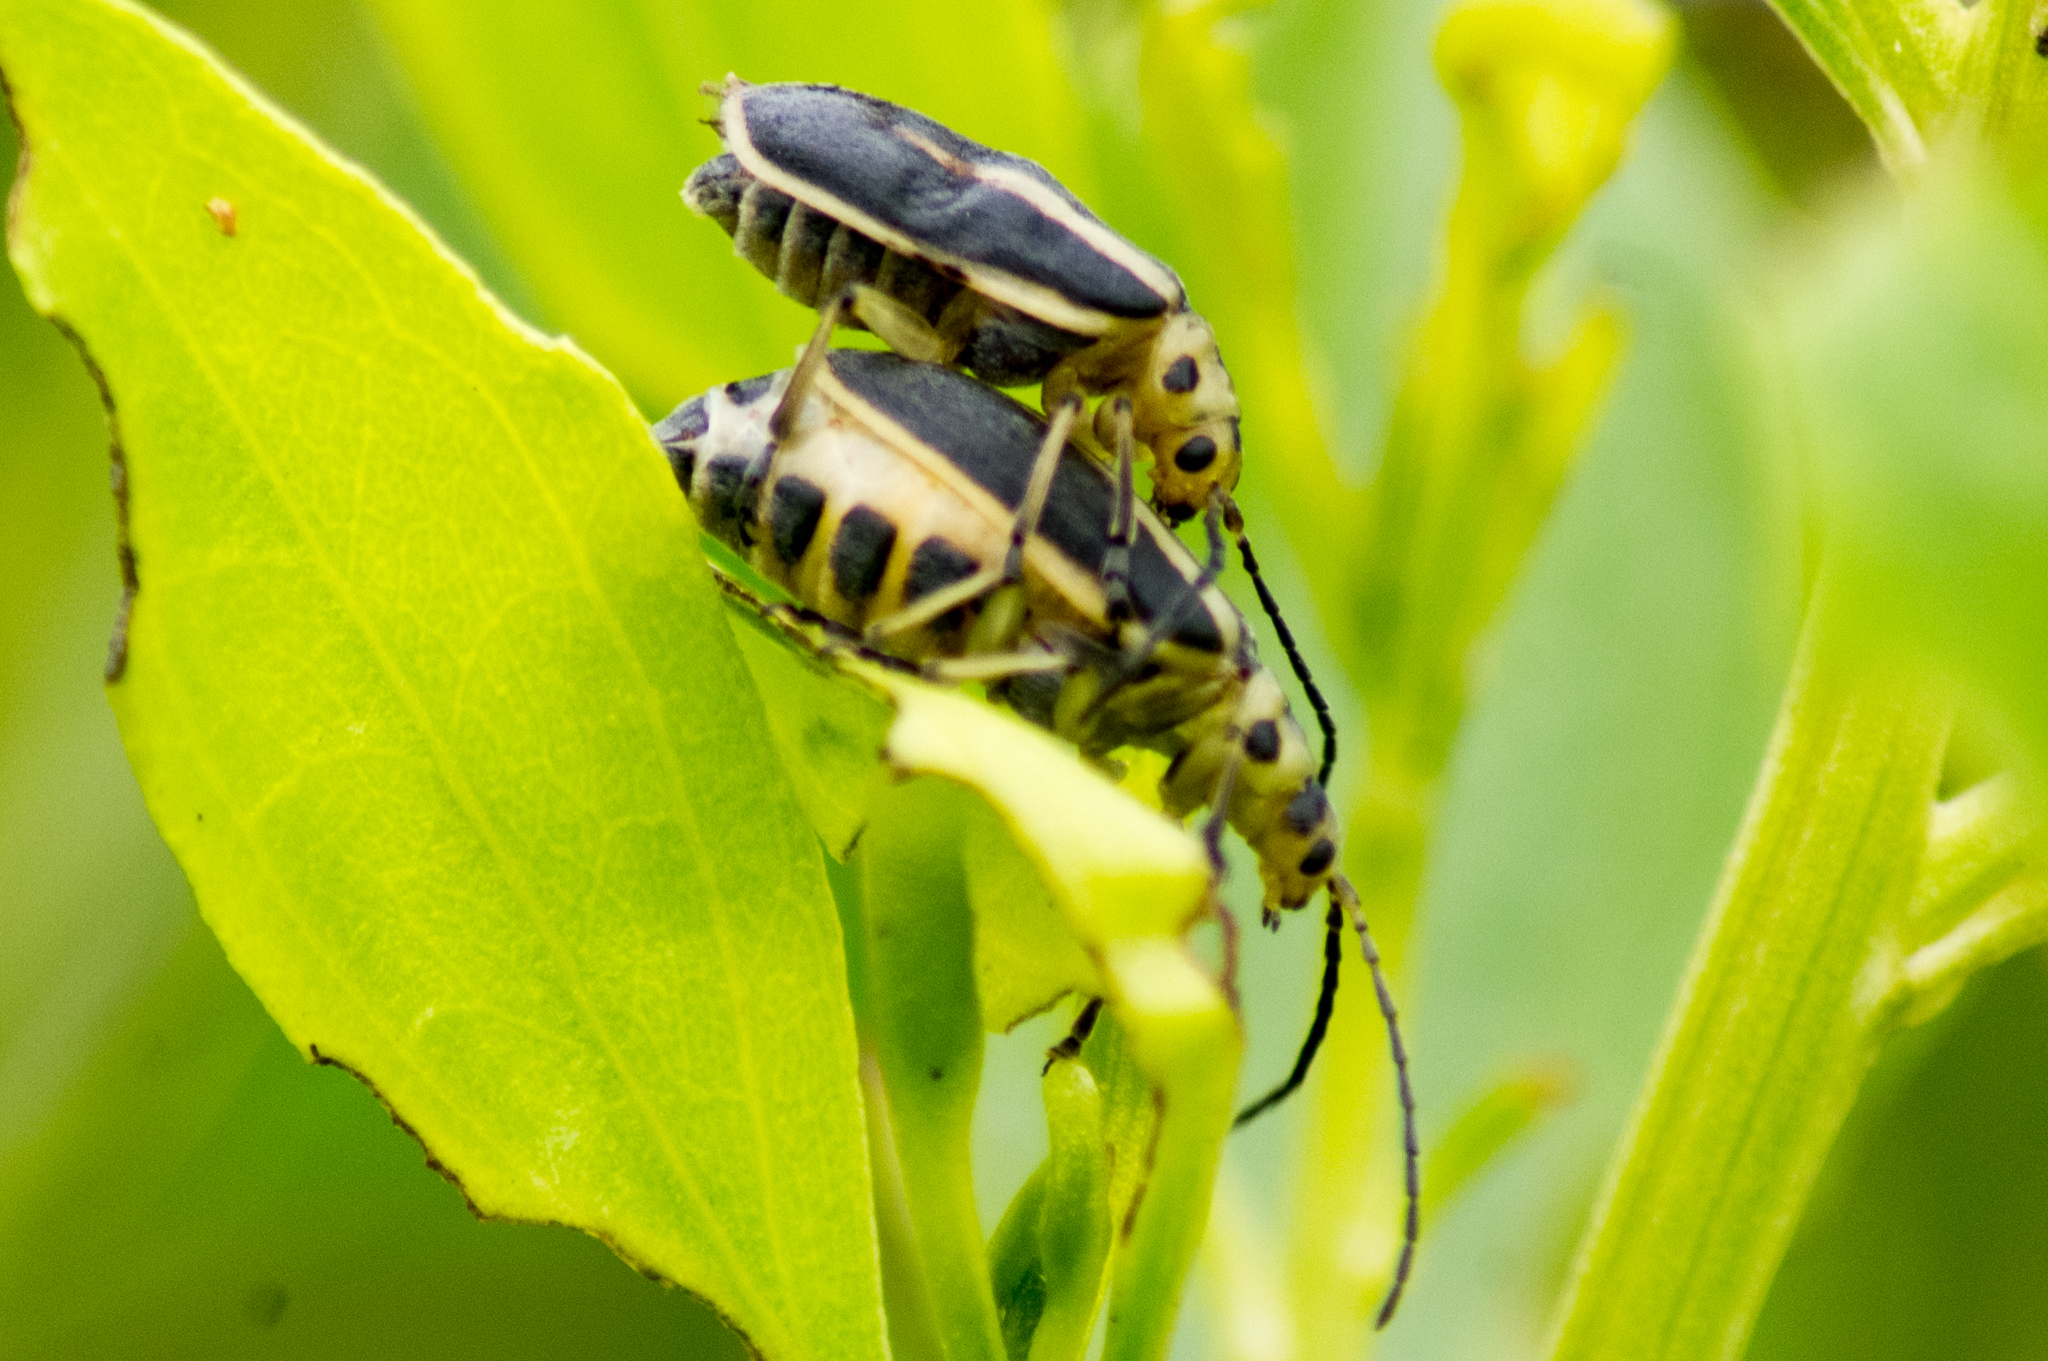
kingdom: Animalia
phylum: Arthropoda
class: Insecta
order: Coleoptera
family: Chrysomelidae
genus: Trirhabda
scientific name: Trirhabda bacharidis
